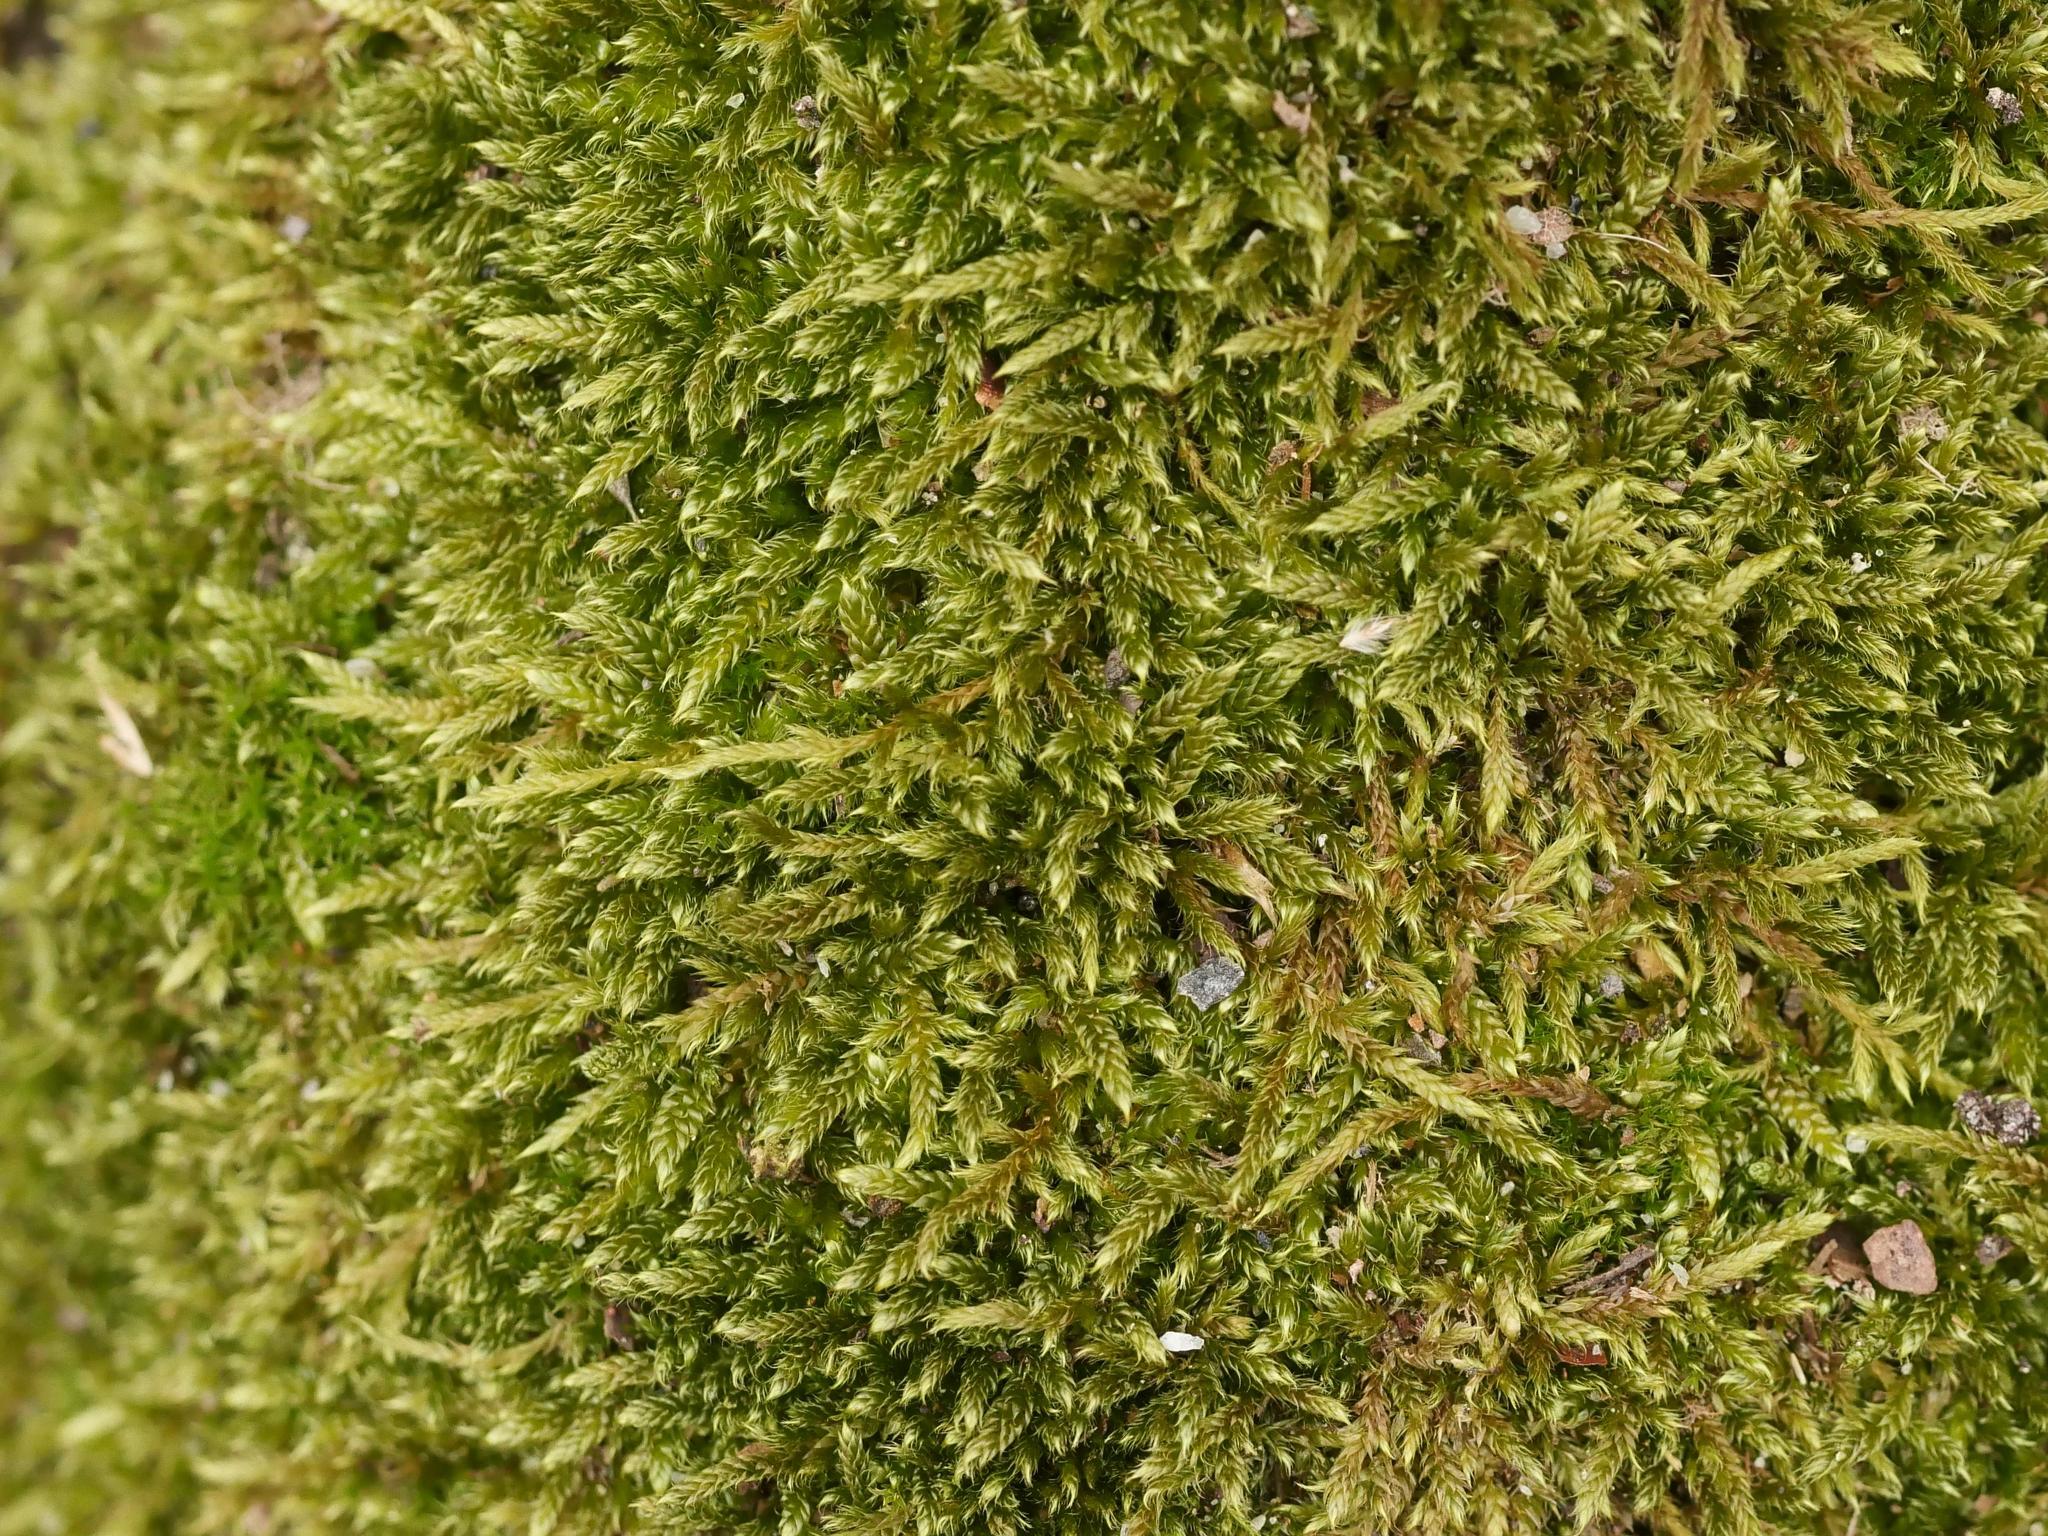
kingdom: Plantae
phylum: Bryophyta
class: Bryopsida
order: Hypnales
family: Hypnaceae
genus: Hypnum
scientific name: Hypnum cupressiforme
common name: Cypress-leaved plait-moss
